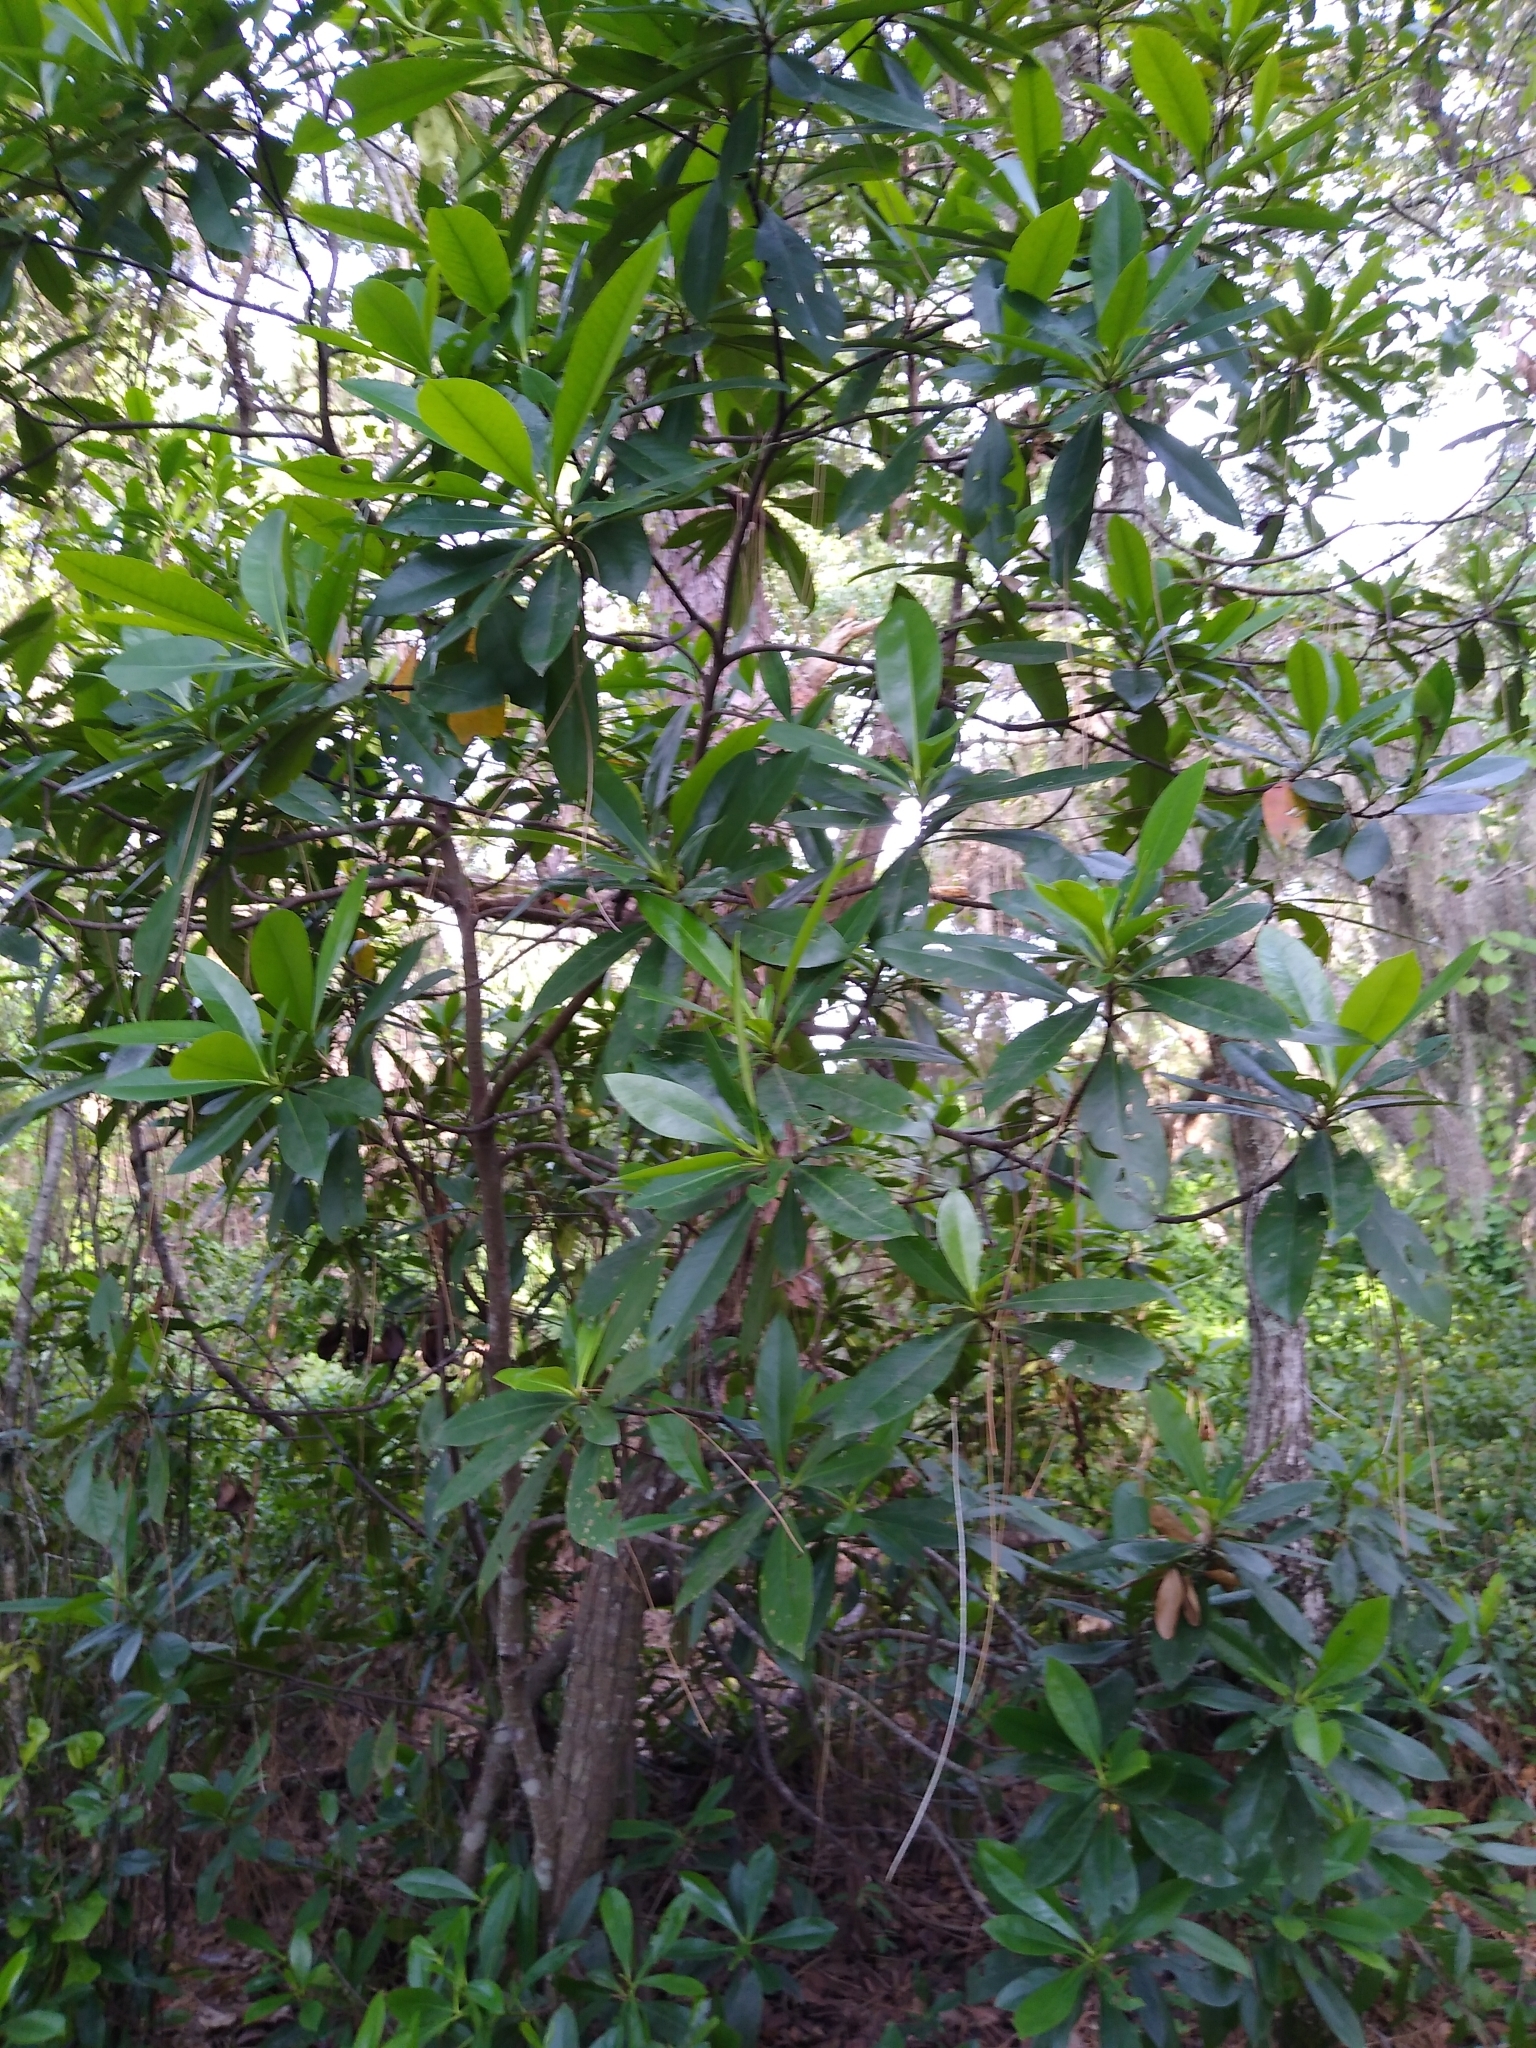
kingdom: Plantae
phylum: Tracheophyta
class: Magnoliopsida
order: Ericales
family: Theaceae
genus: Gordonia
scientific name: Gordonia lasianthus
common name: Loblolly bay
